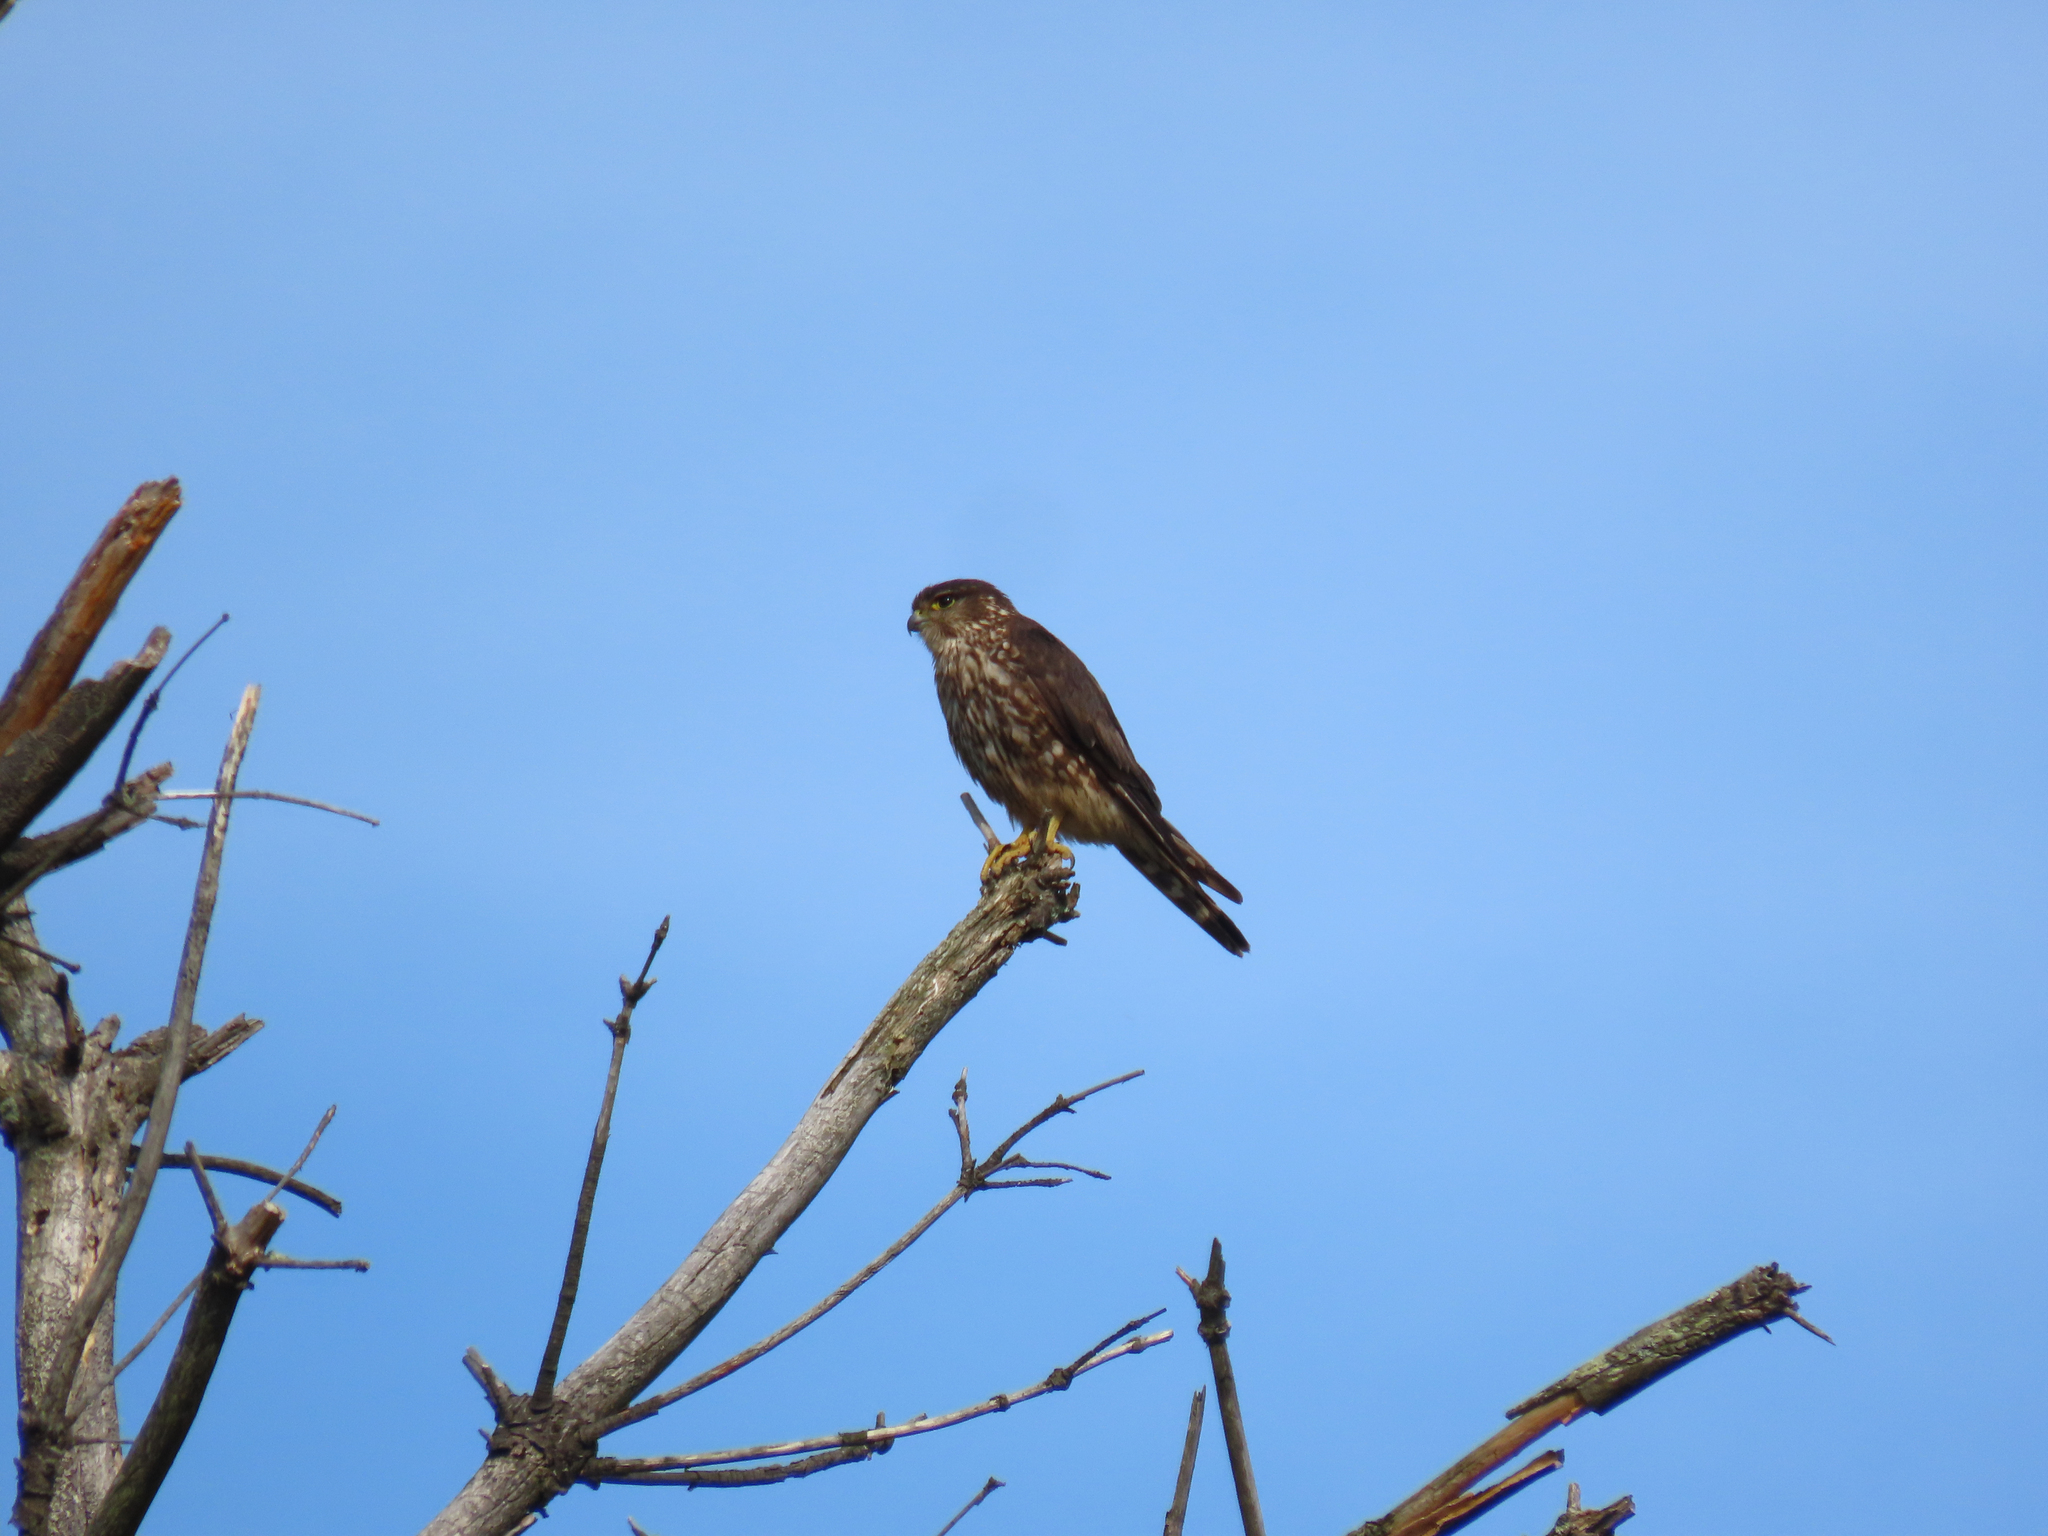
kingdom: Animalia
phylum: Chordata
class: Aves
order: Falconiformes
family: Falconidae
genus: Falco
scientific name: Falco columbarius
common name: Merlin
